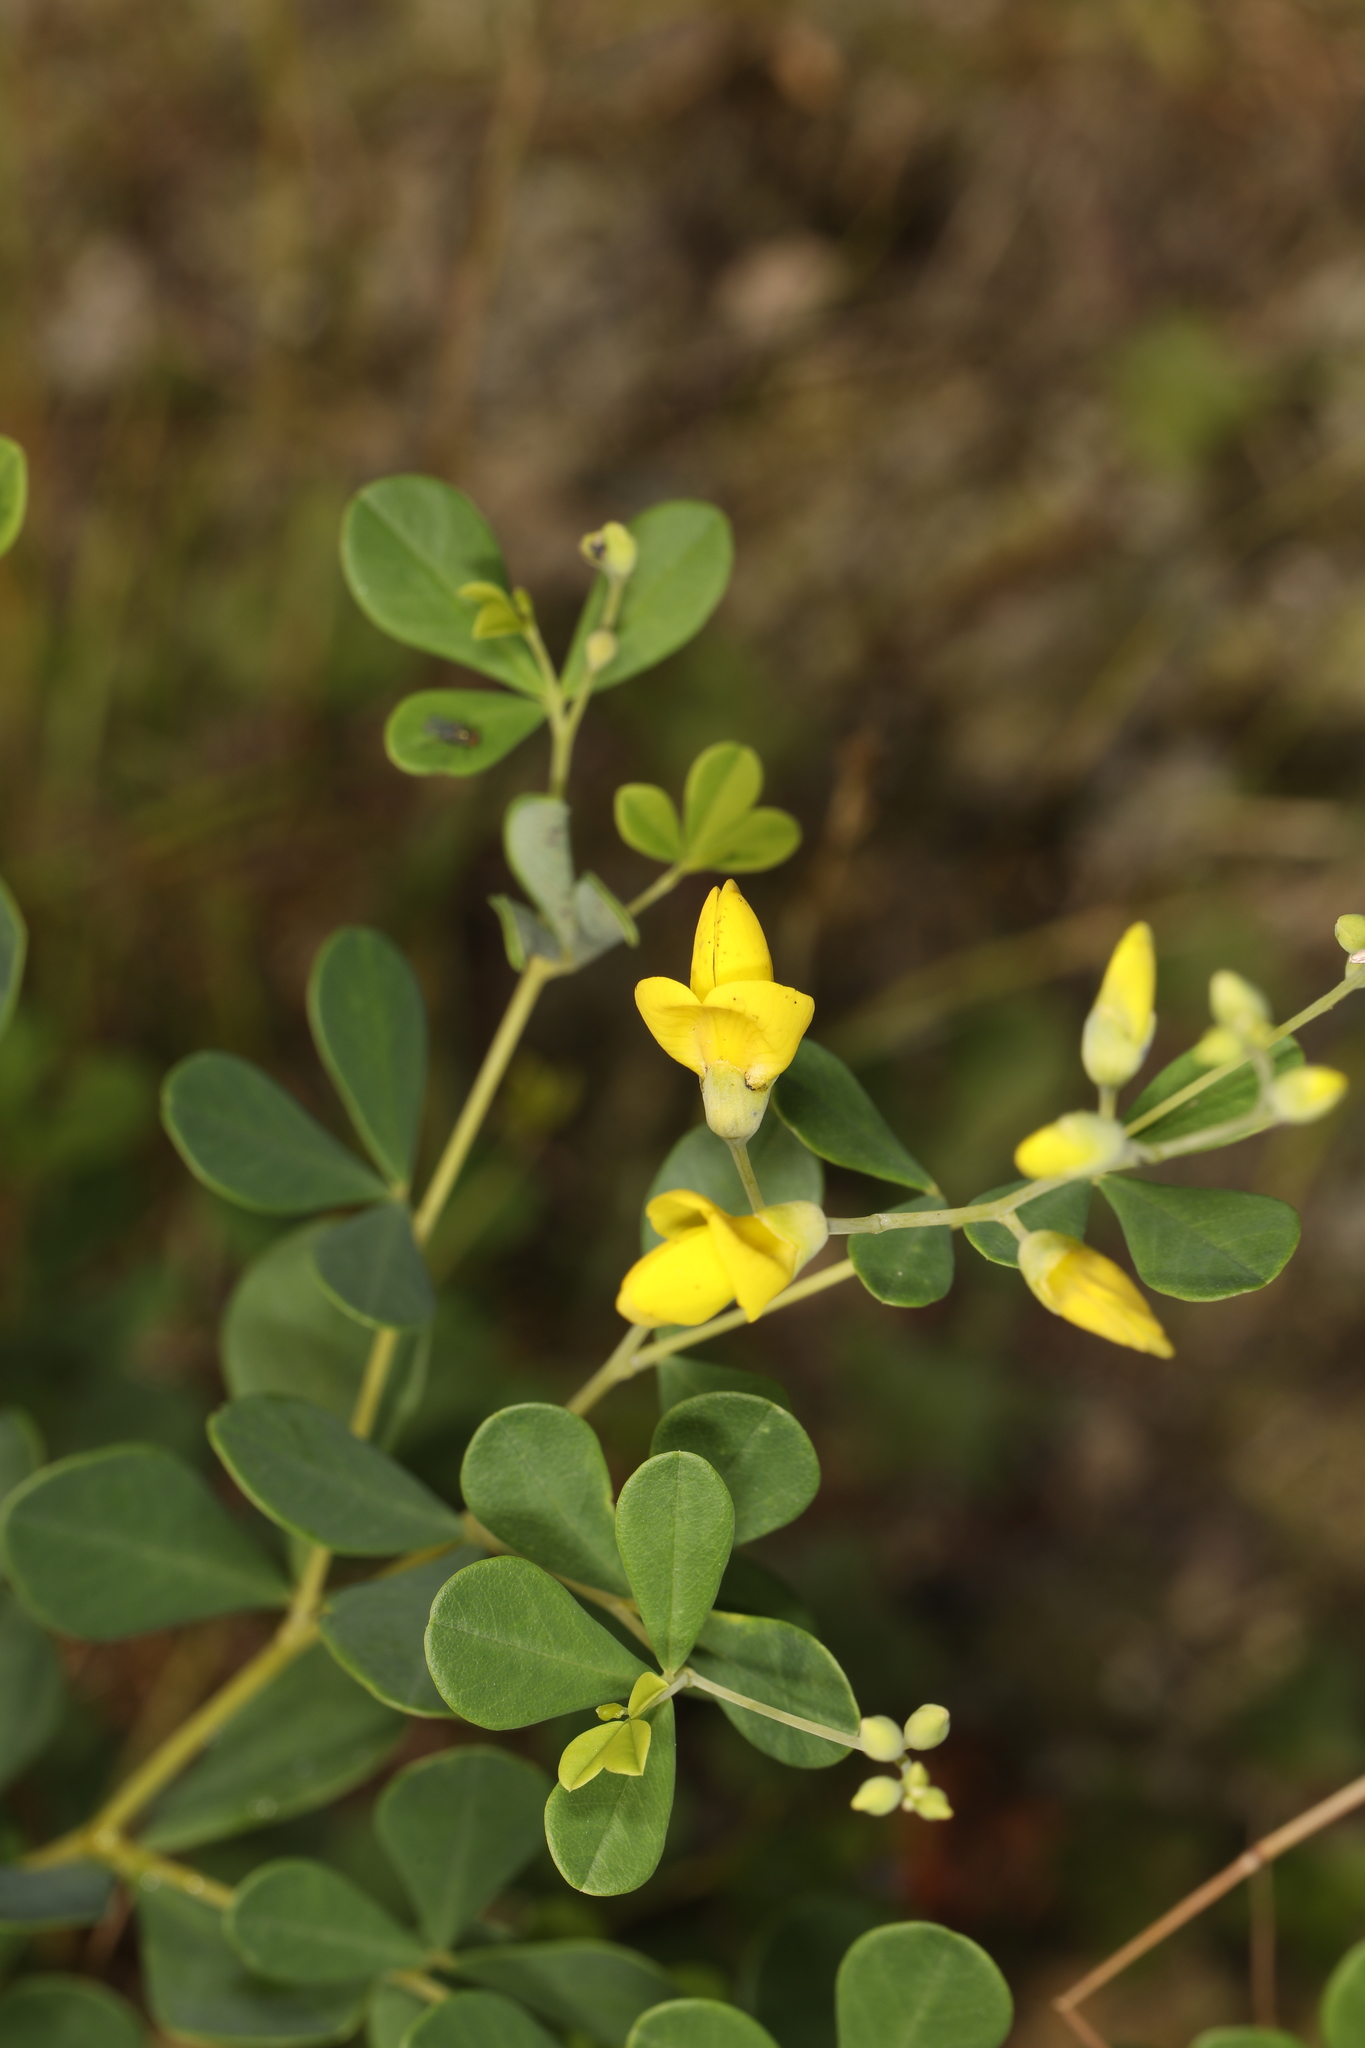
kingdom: Plantae
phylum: Tracheophyta
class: Magnoliopsida
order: Fabales
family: Fabaceae
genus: Baptisia
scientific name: Baptisia tinctoria
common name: Wild indigo
